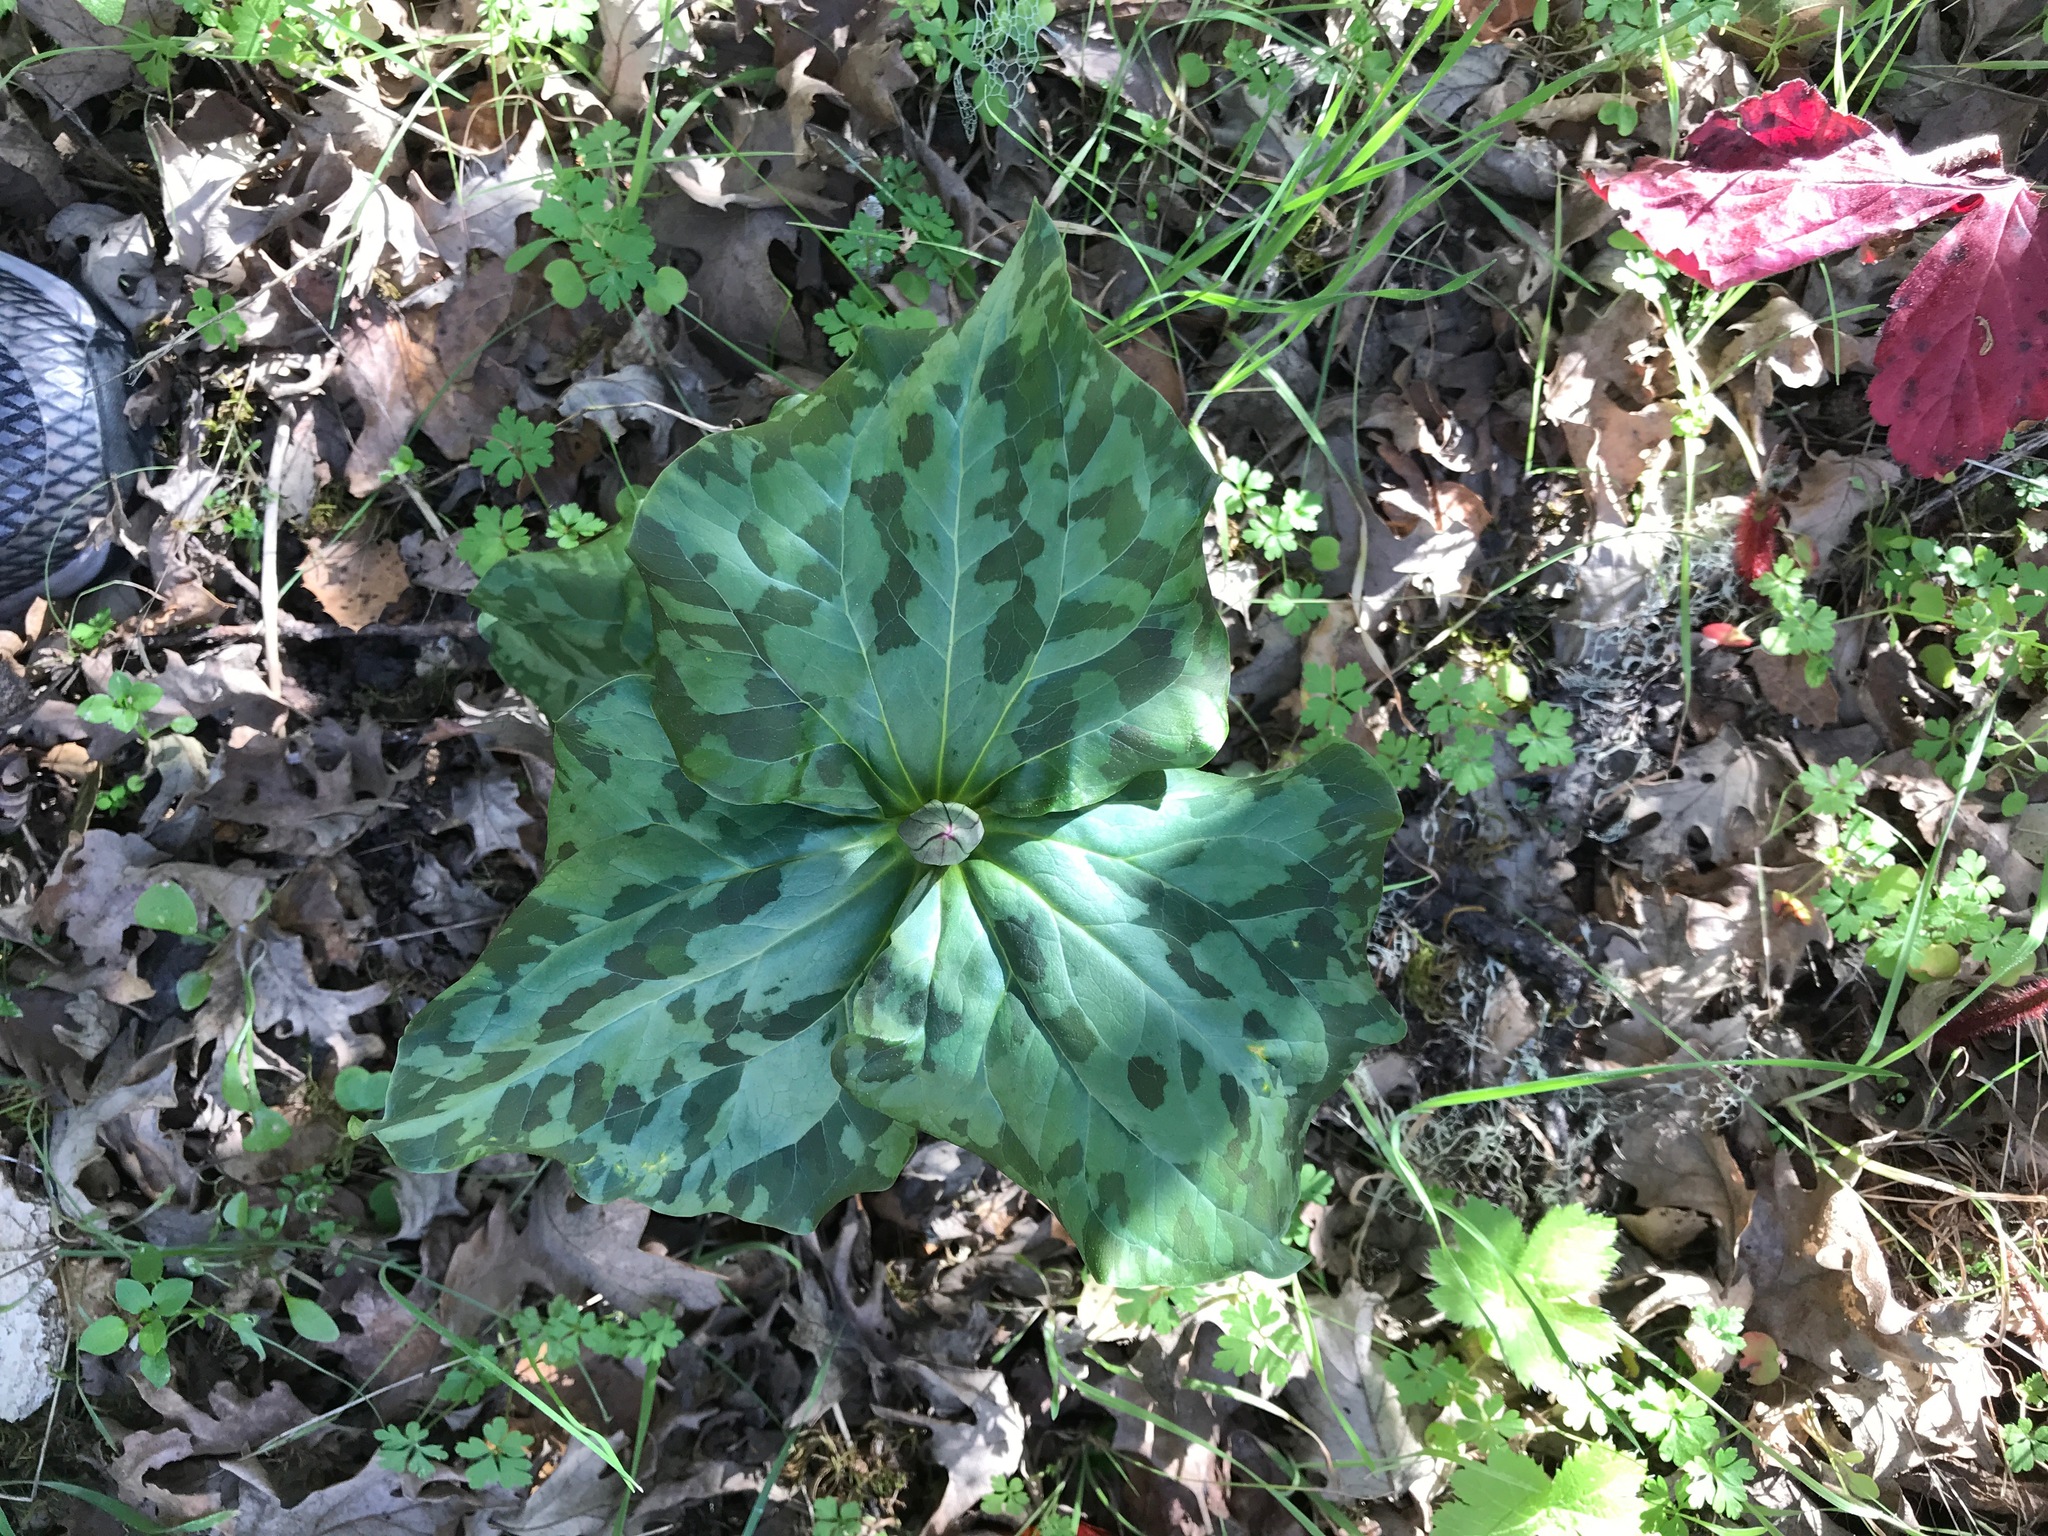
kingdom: Plantae
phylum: Tracheophyta
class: Liliopsida
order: Liliales
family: Melanthiaceae
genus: Trillium
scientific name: Trillium chloropetalum
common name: Giant trillium
